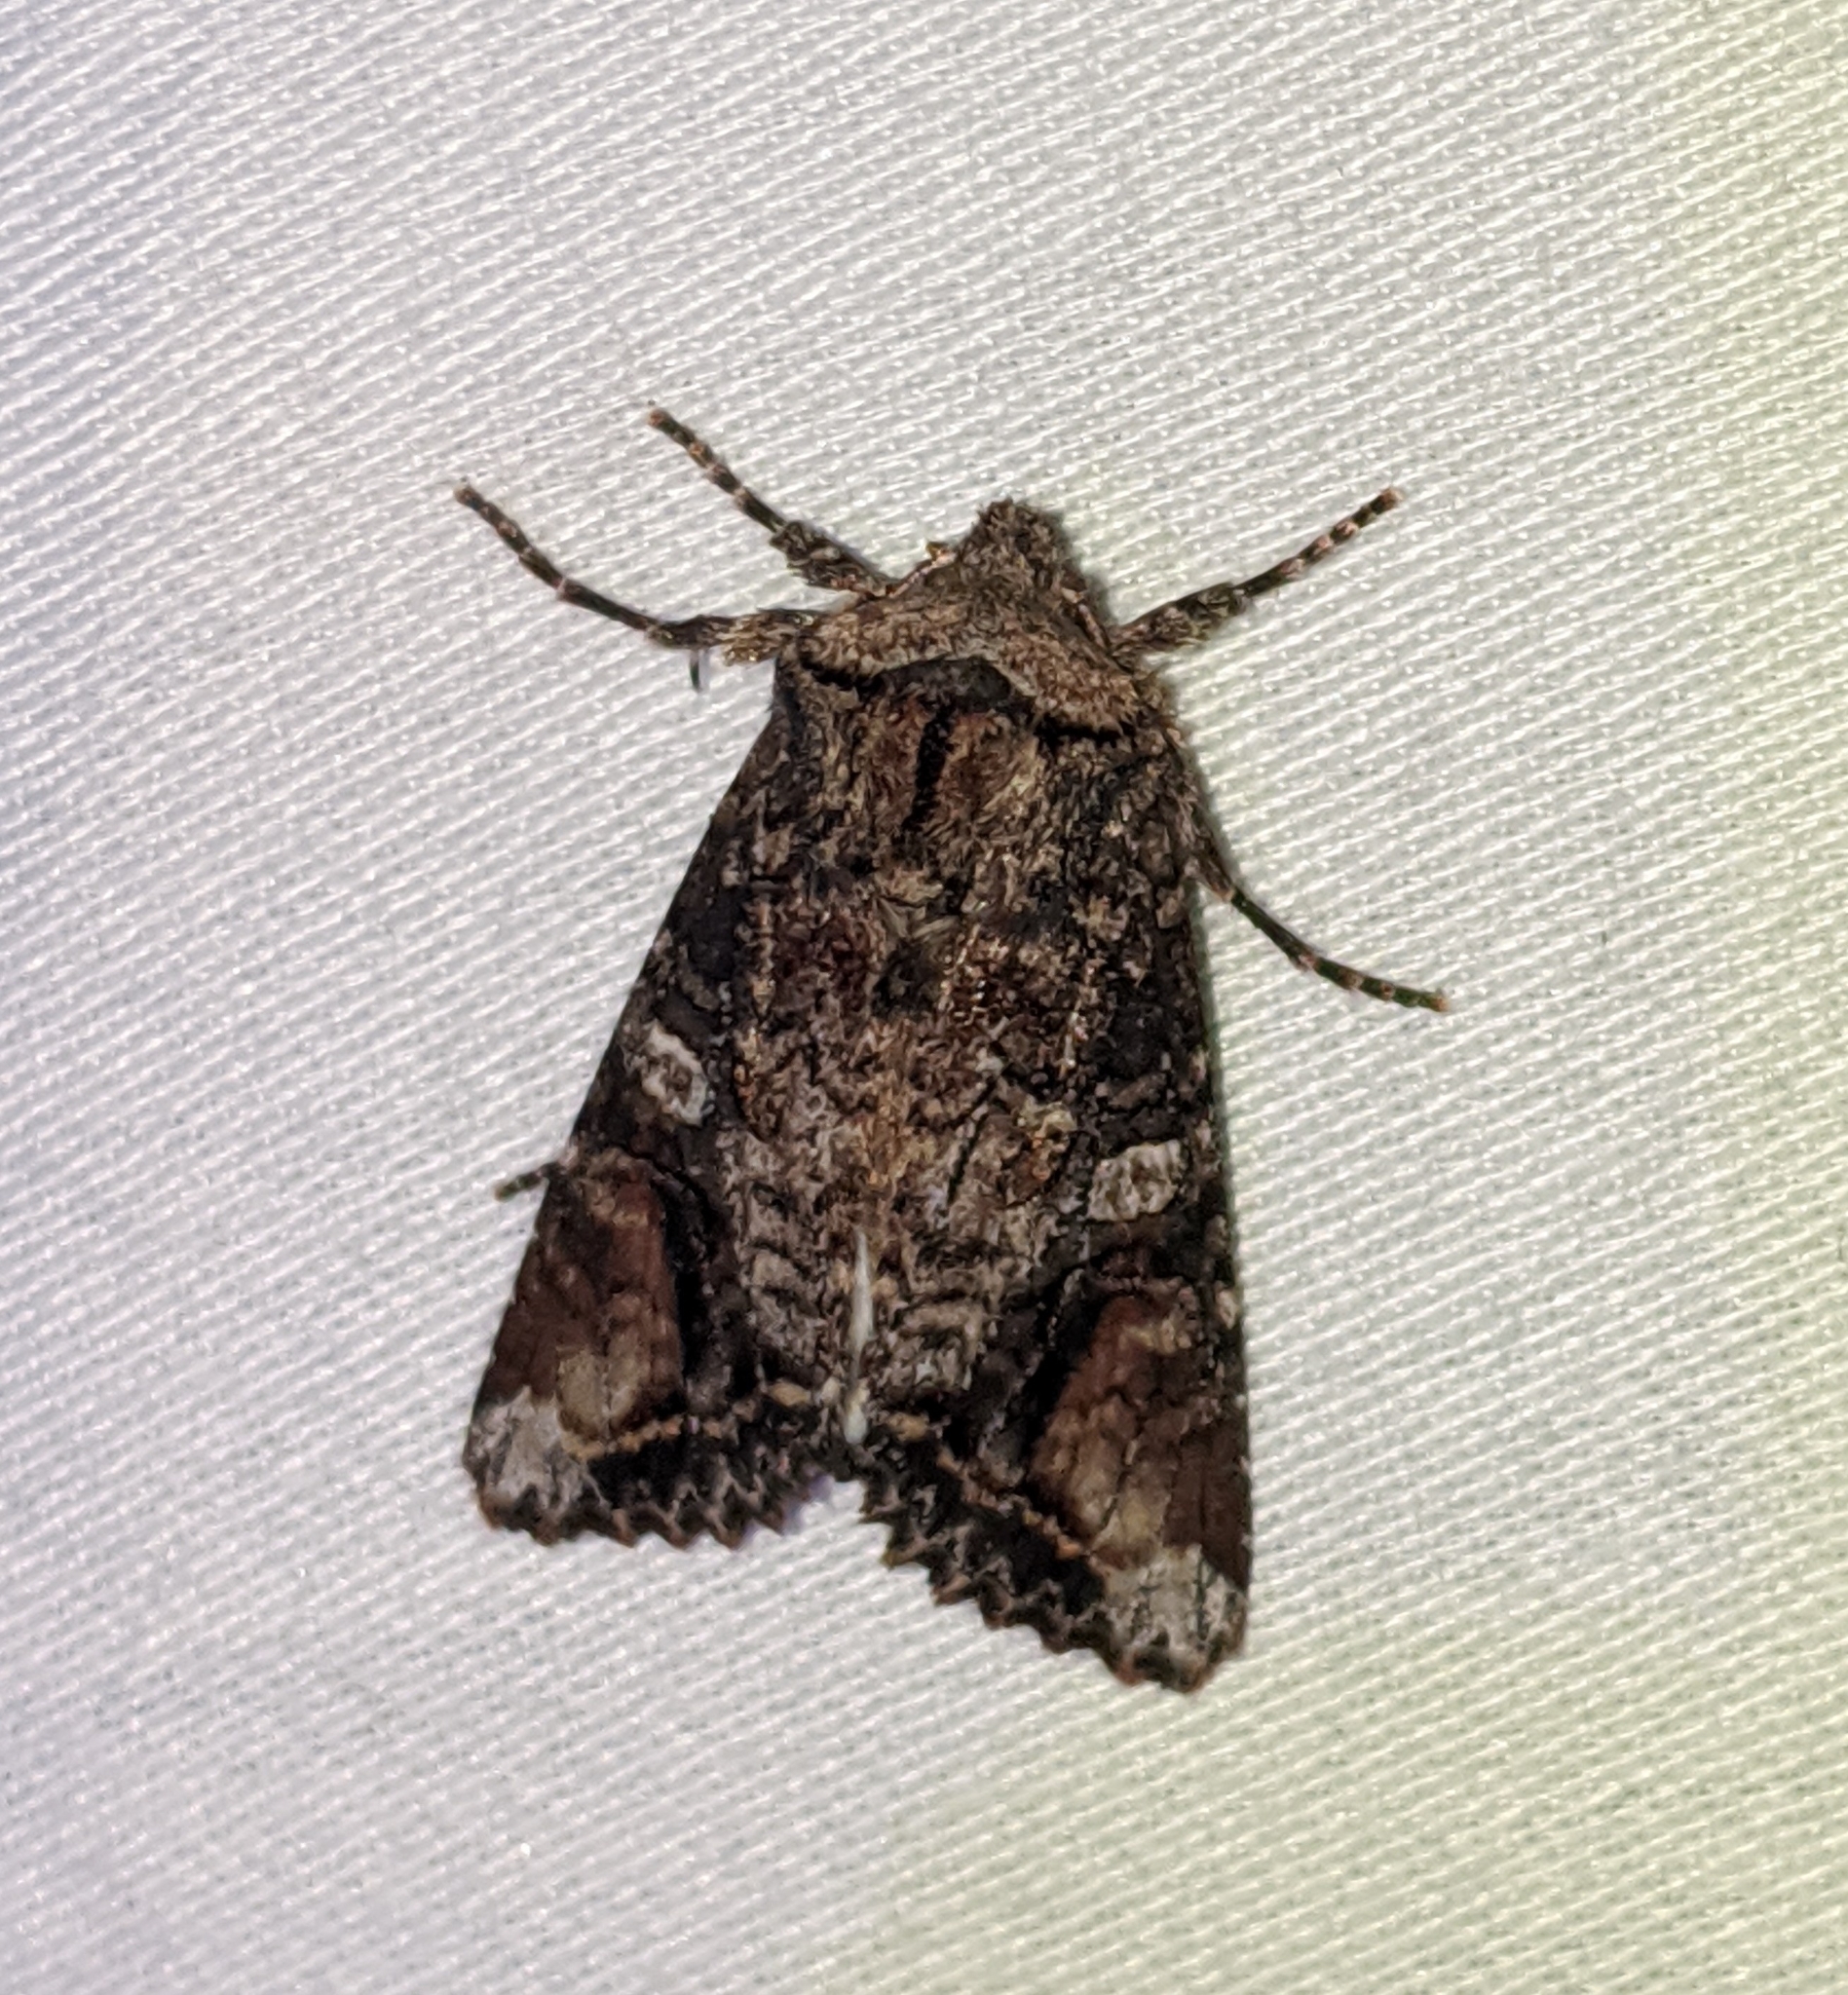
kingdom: Animalia
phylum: Arthropoda
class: Insecta
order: Lepidoptera
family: Noctuidae
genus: Egira
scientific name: Egira perlubens
